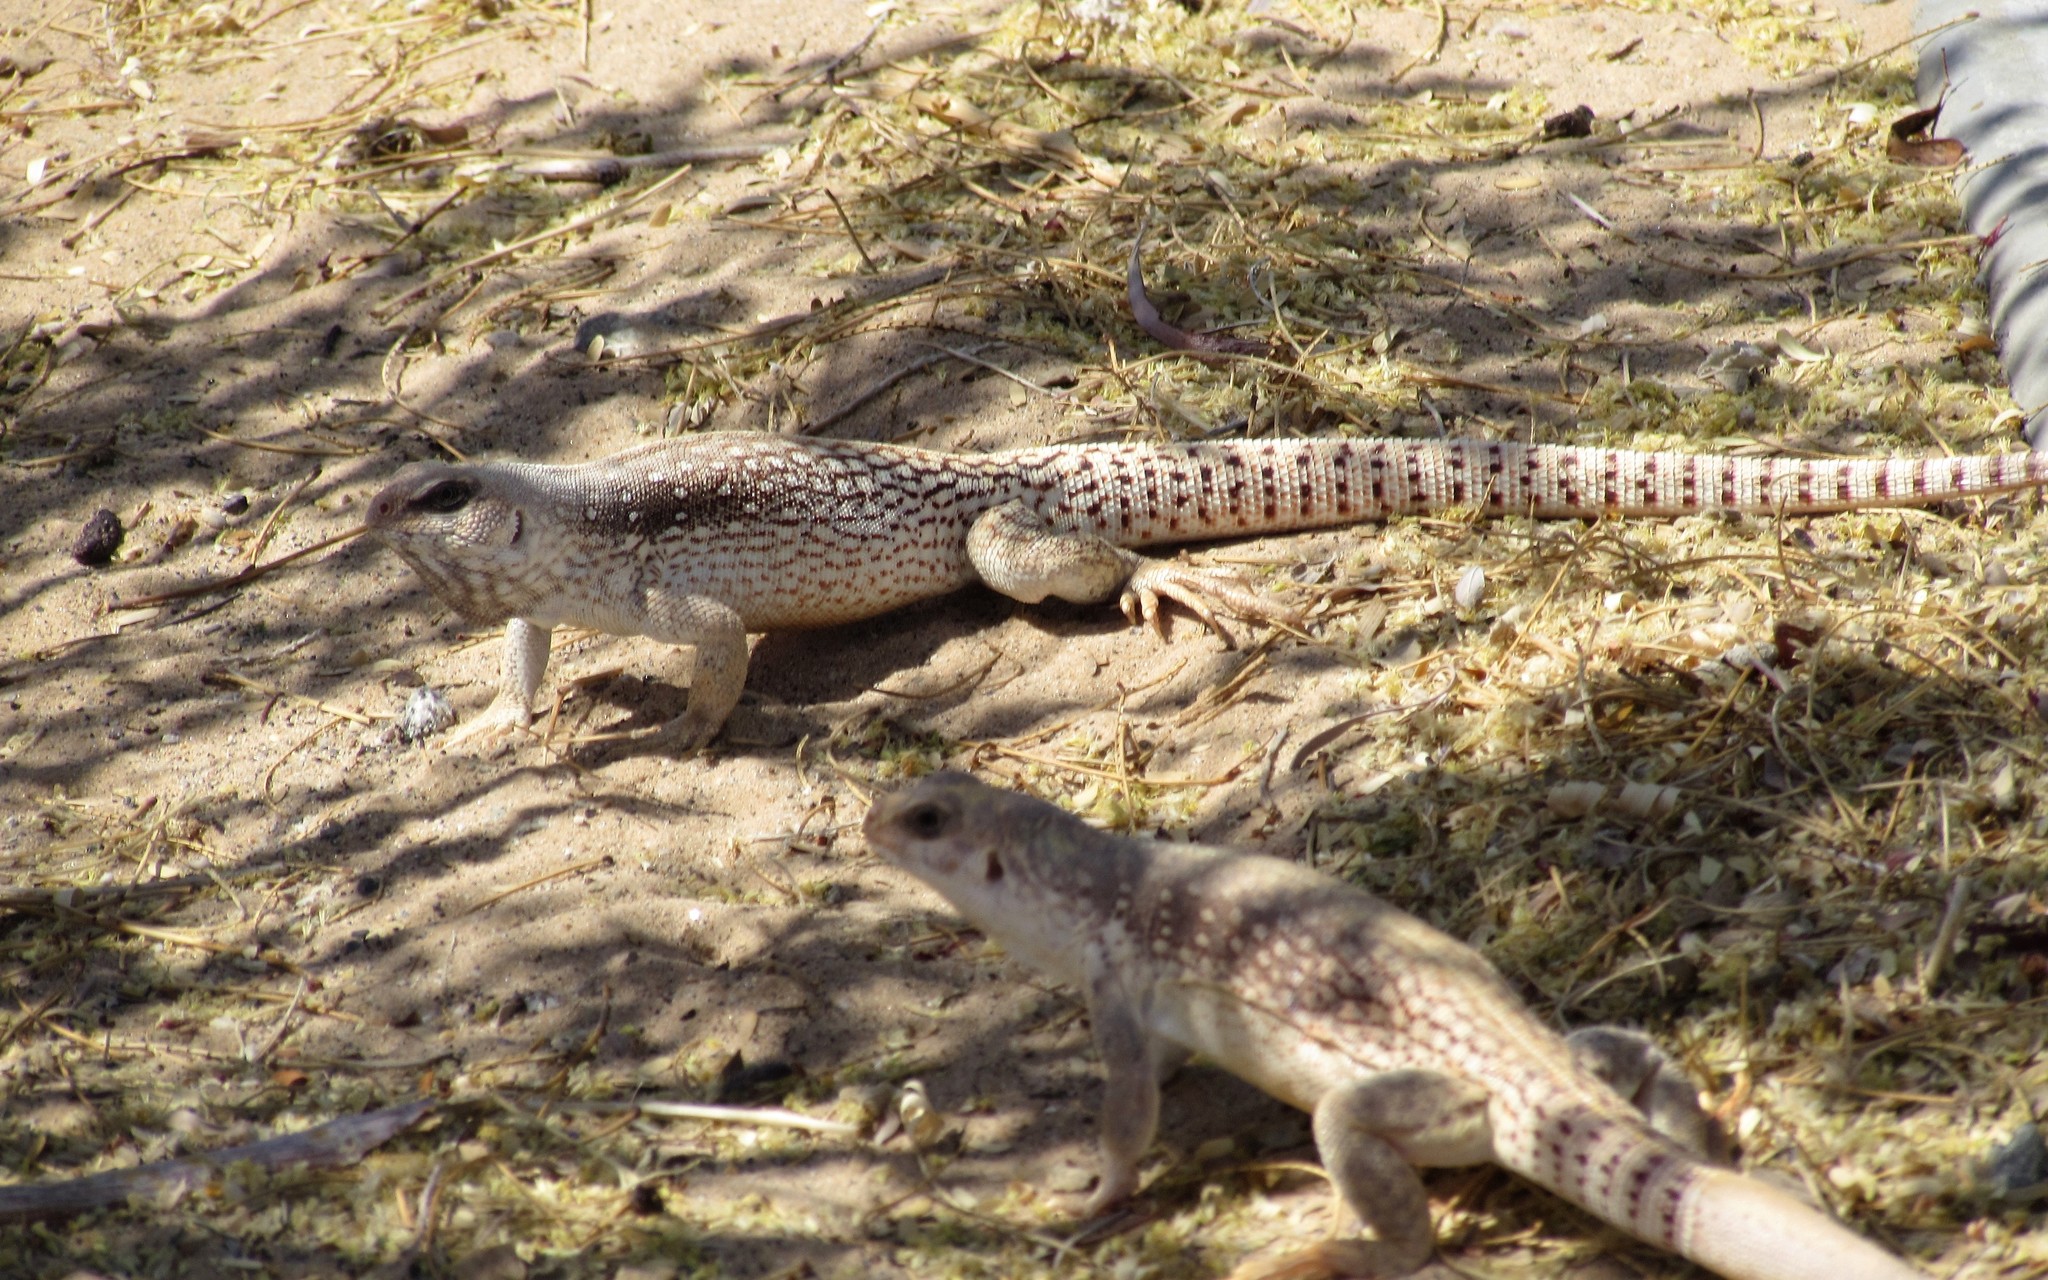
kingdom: Animalia
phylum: Chordata
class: Squamata
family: Iguanidae
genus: Dipsosaurus
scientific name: Dipsosaurus dorsalis
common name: Desert iguana
